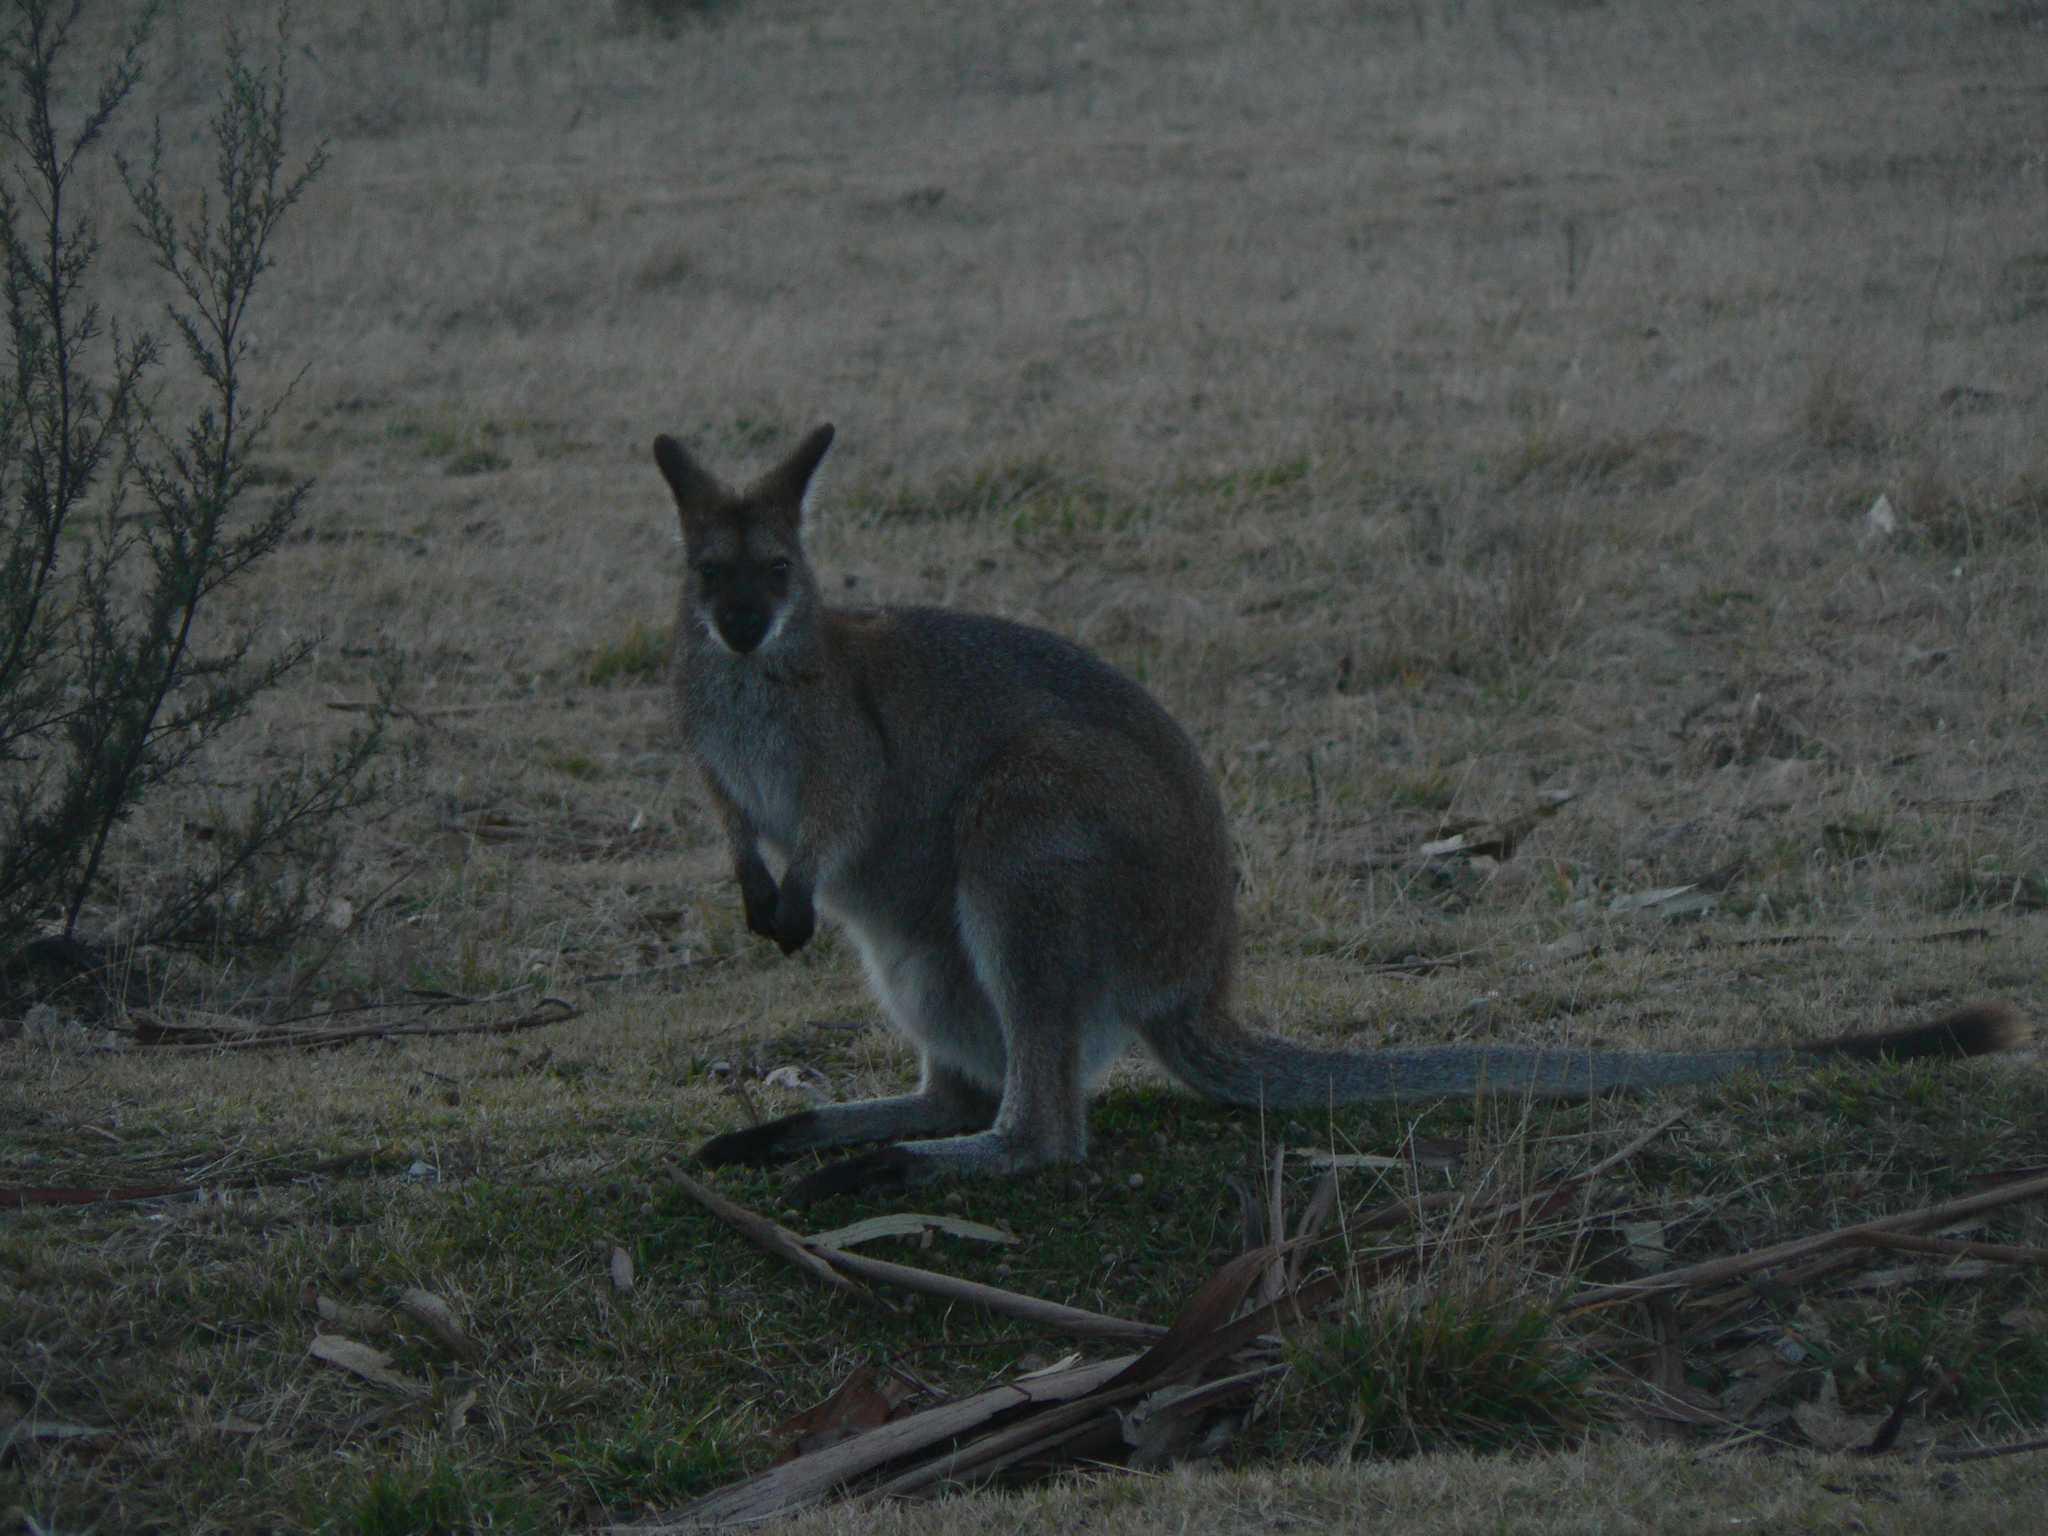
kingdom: Animalia
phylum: Chordata
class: Mammalia
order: Diprotodontia
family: Macropodidae
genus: Notamacropus
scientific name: Notamacropus rufogriseus
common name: Red-necked wallaby
